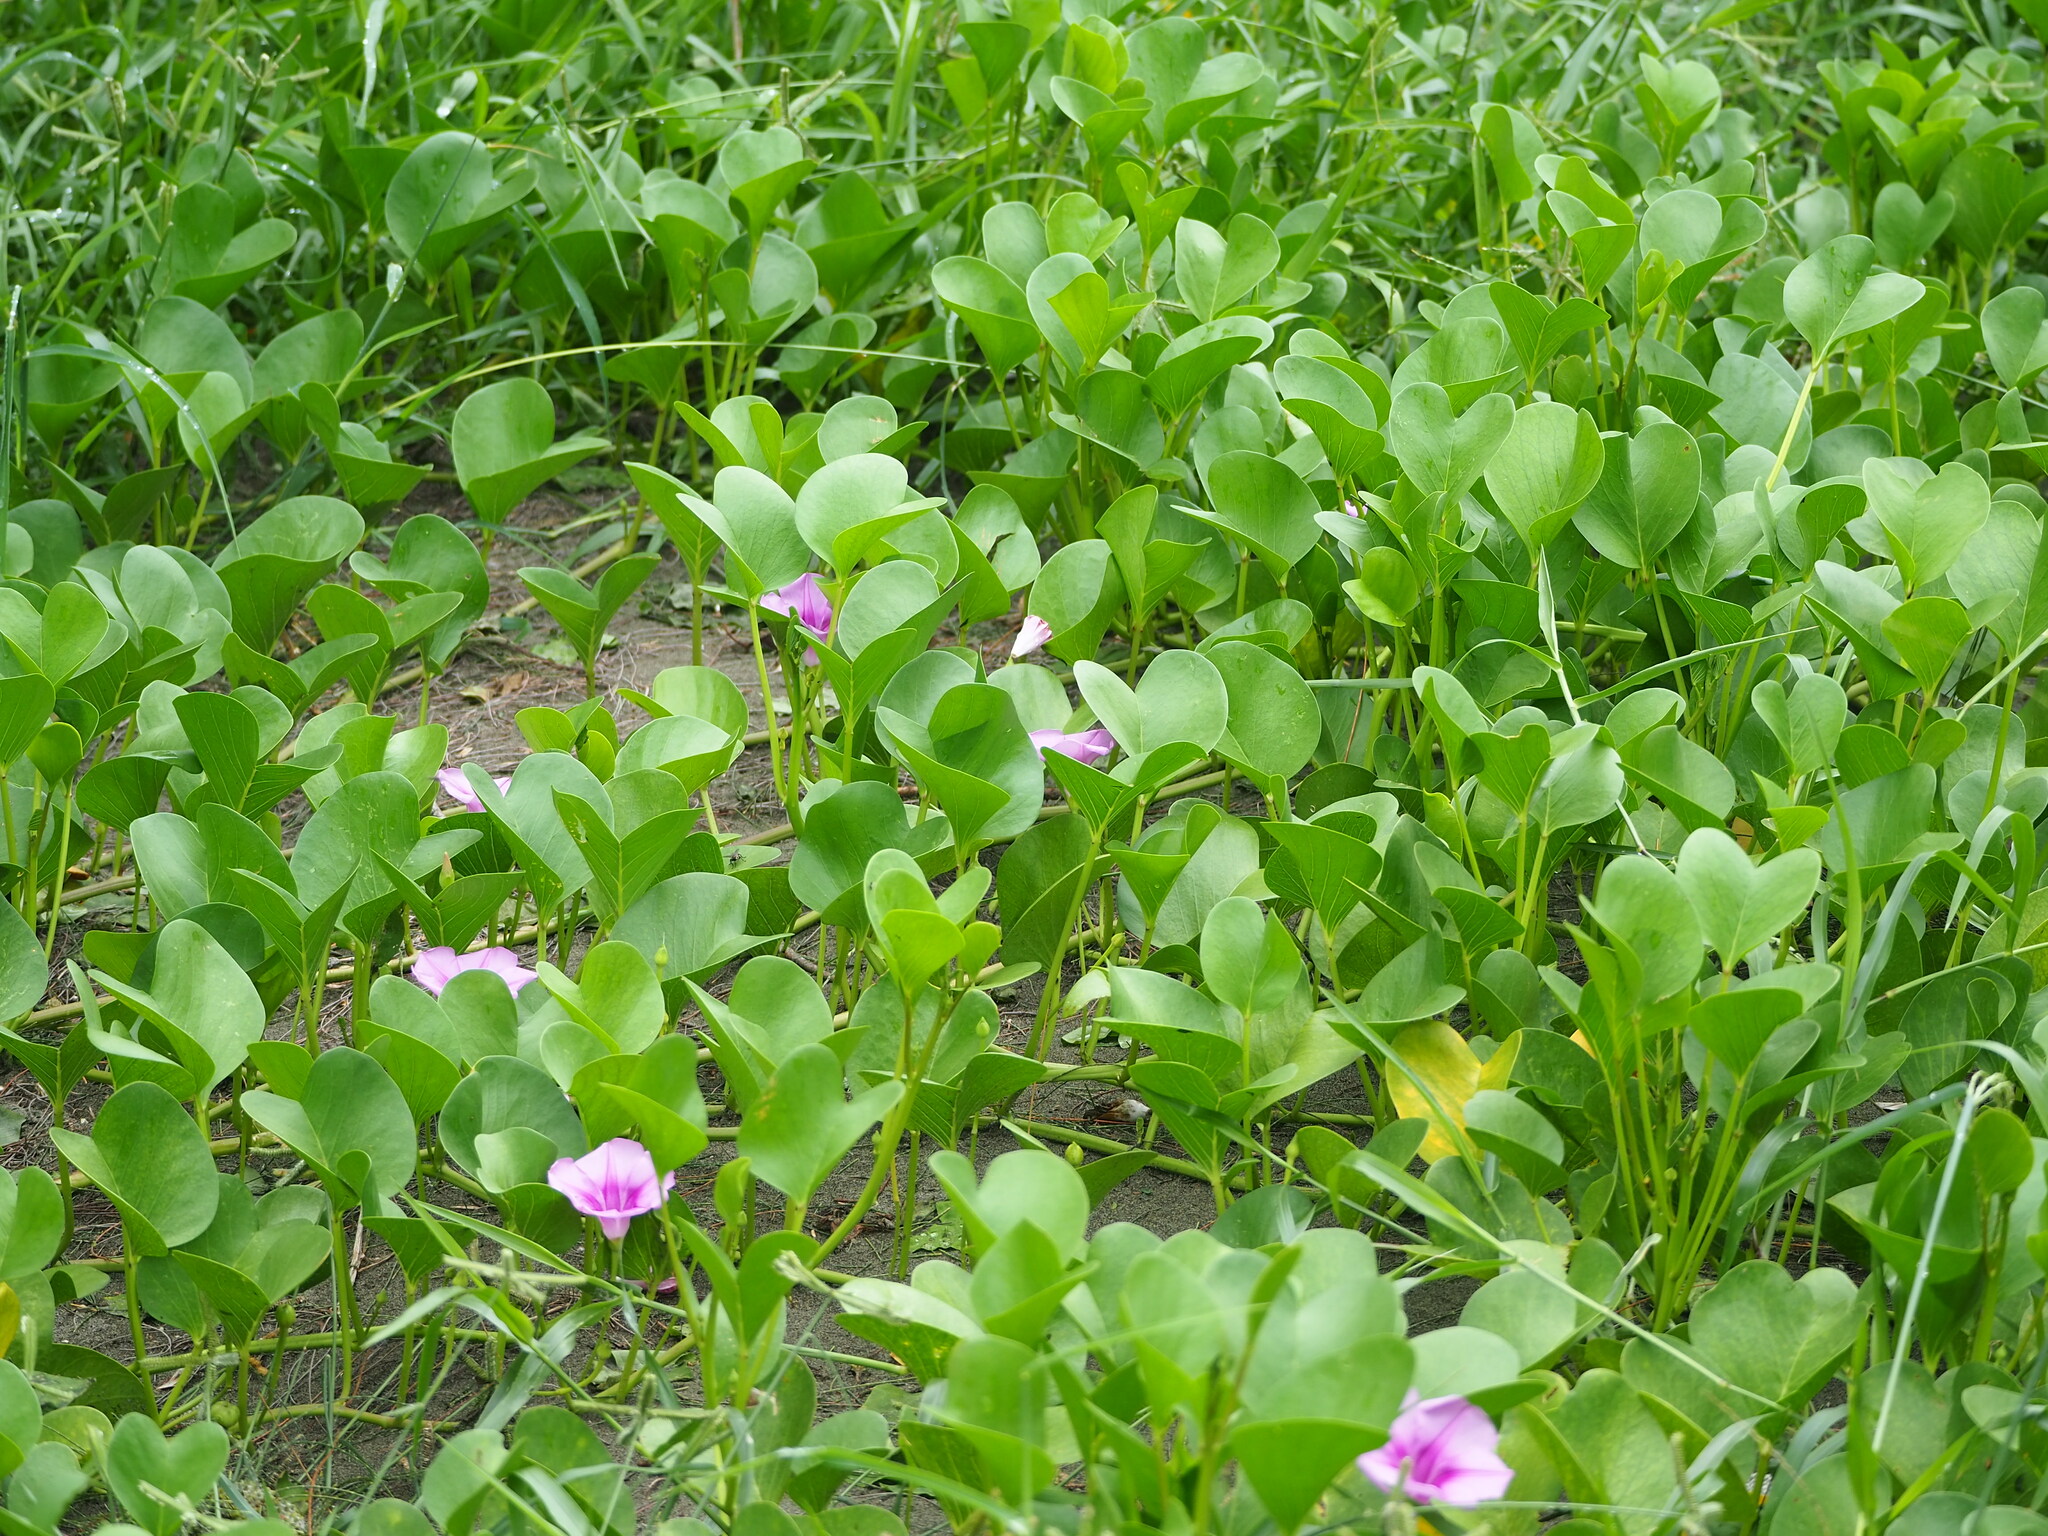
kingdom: Plantae
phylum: Tracheophyta
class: Magnoliopsida
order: Solanales
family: Convolvulaceae
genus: Ipomoea
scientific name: Ipomoea pes-caprae
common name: Beach morning glory
